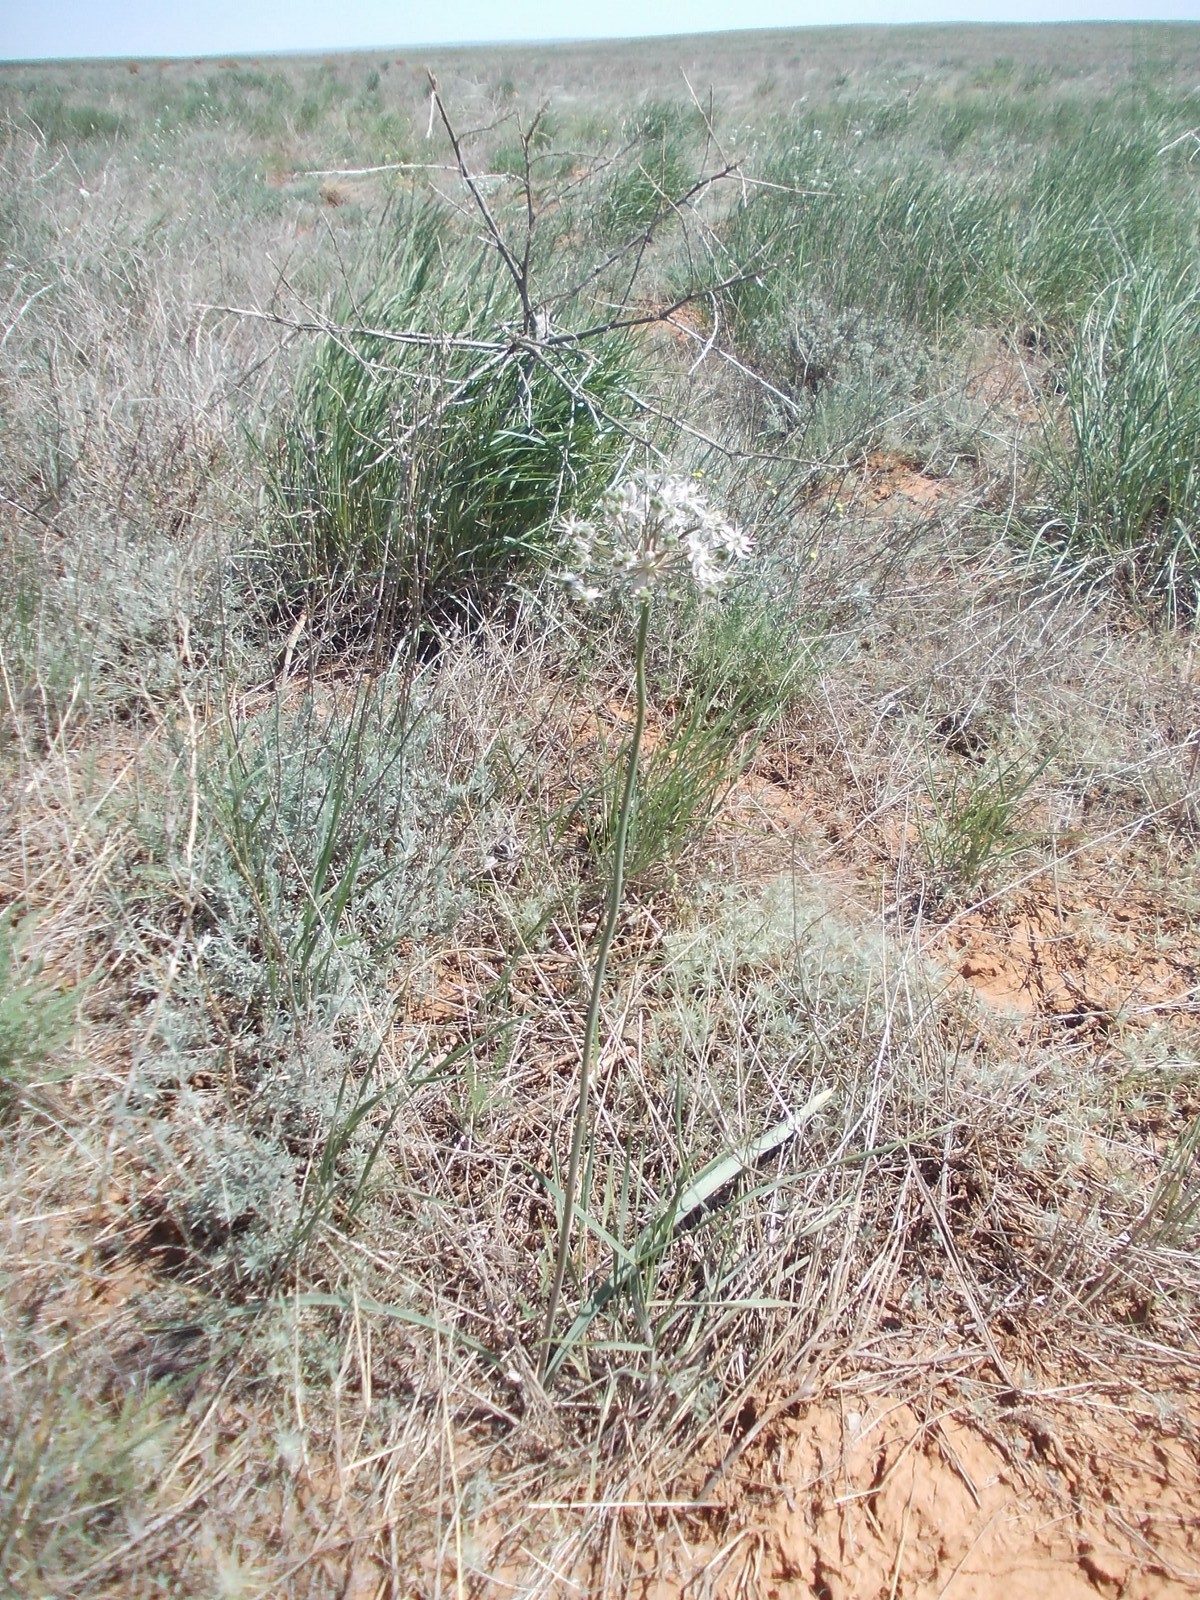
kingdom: Plantae
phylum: Tracheophyta
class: Liliopsida
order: Asparagales
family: Amaryllidaceae
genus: Allium
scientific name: Allium tulipifolium
